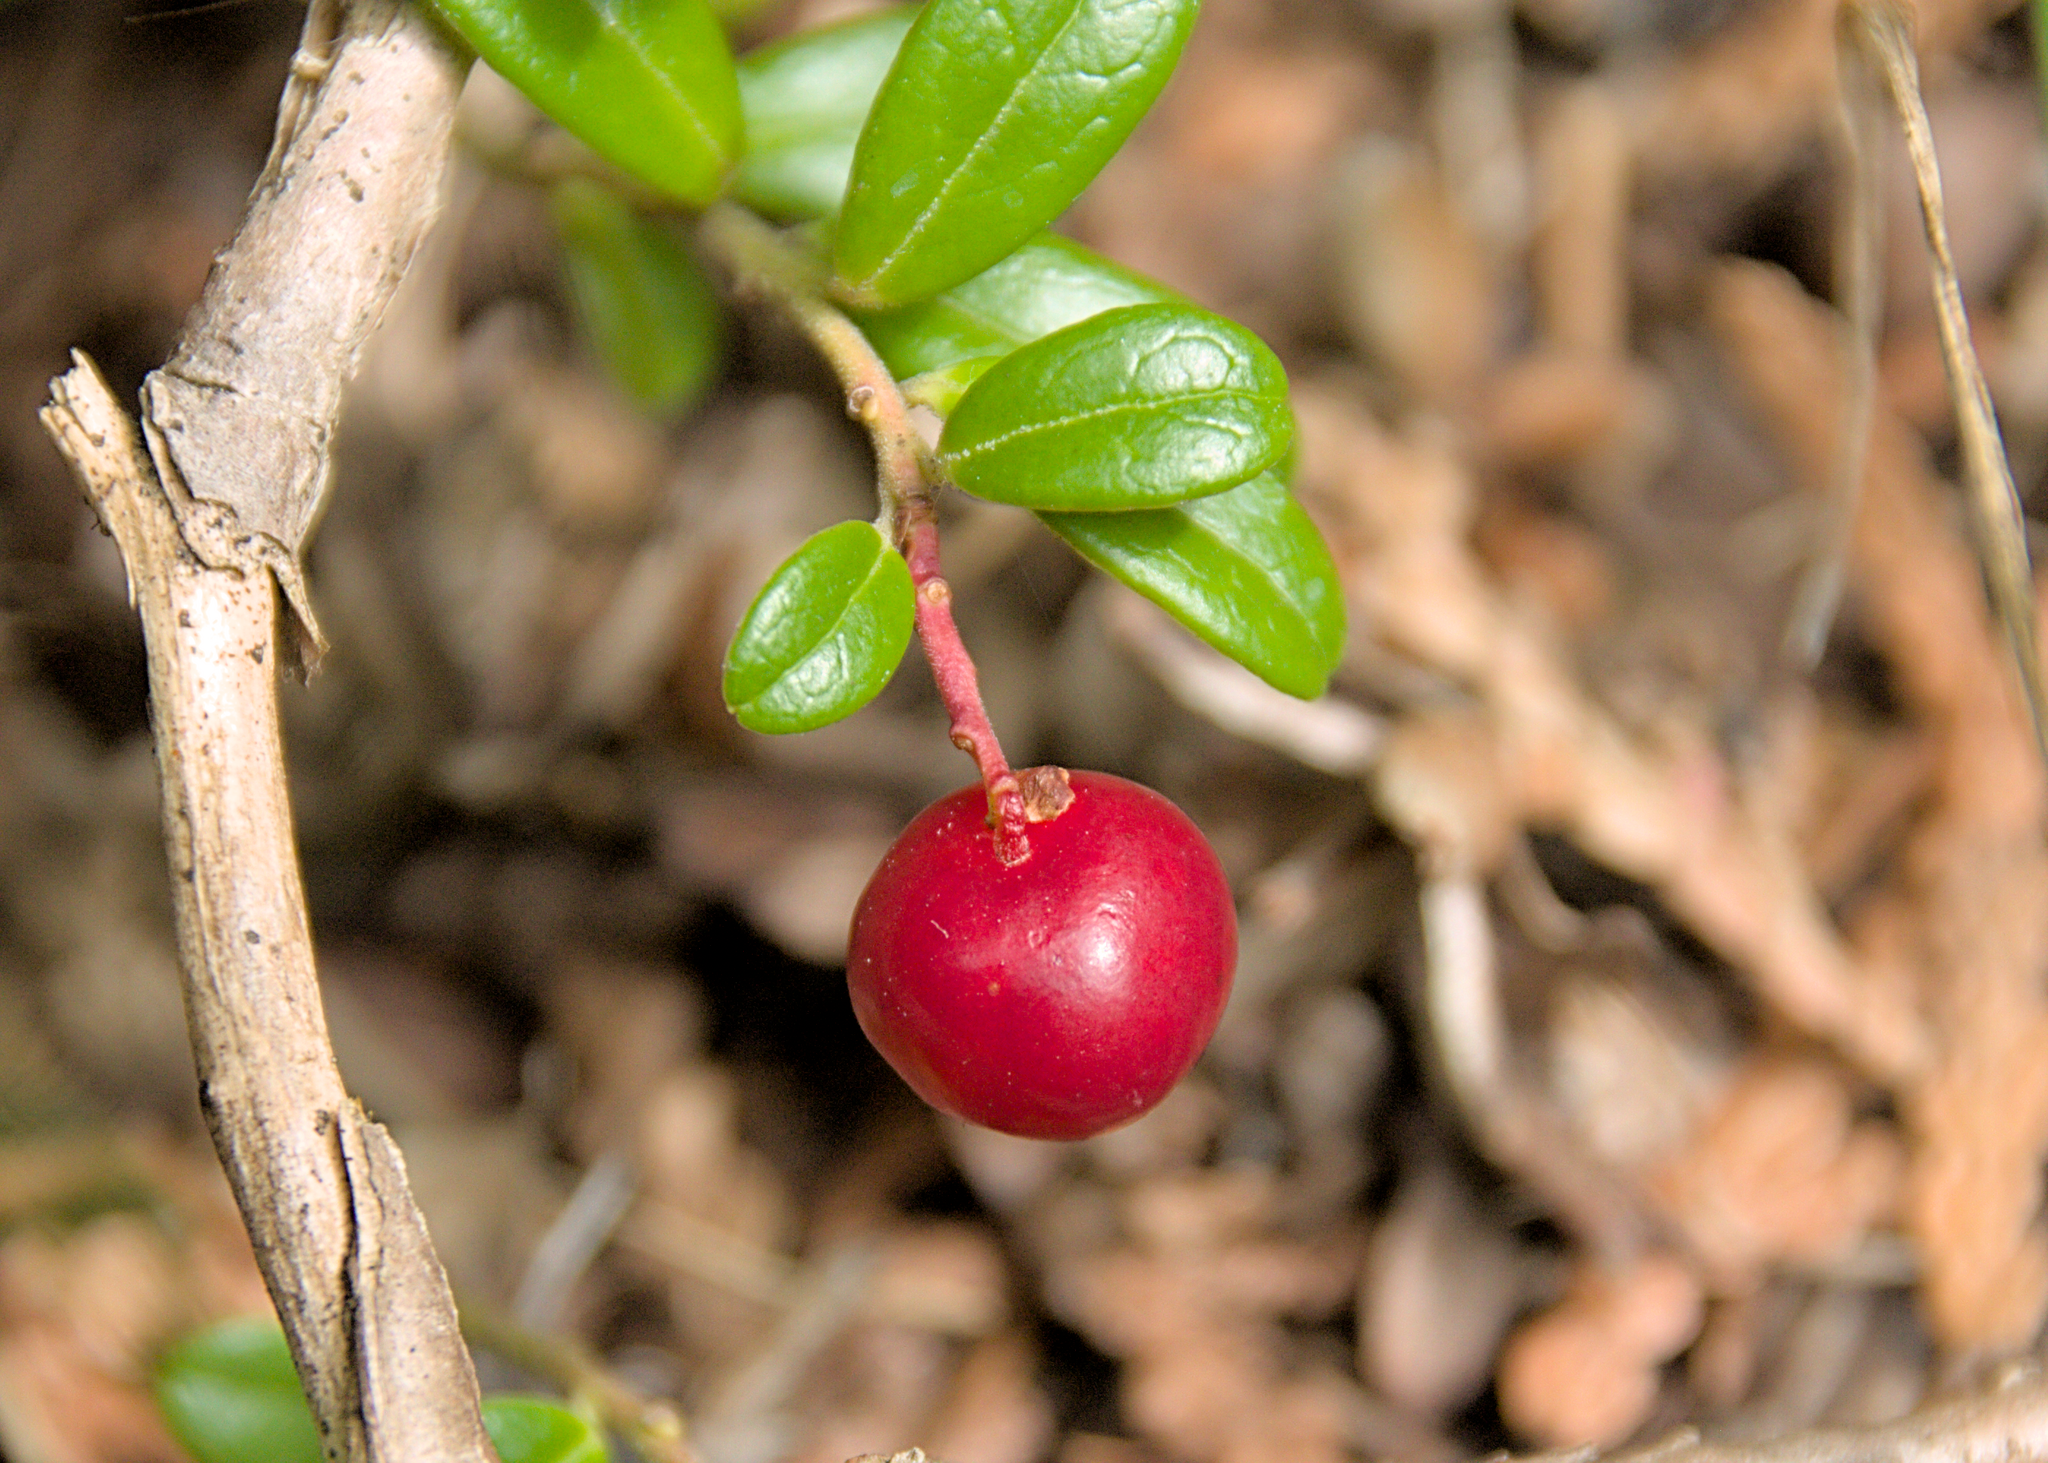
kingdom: Plantae
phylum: Tracheophyta
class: Magnoliopsida
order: Ericales
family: Ericaceae
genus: Vaccinium
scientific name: Vaccinium vitis-idaea
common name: Cowberry
